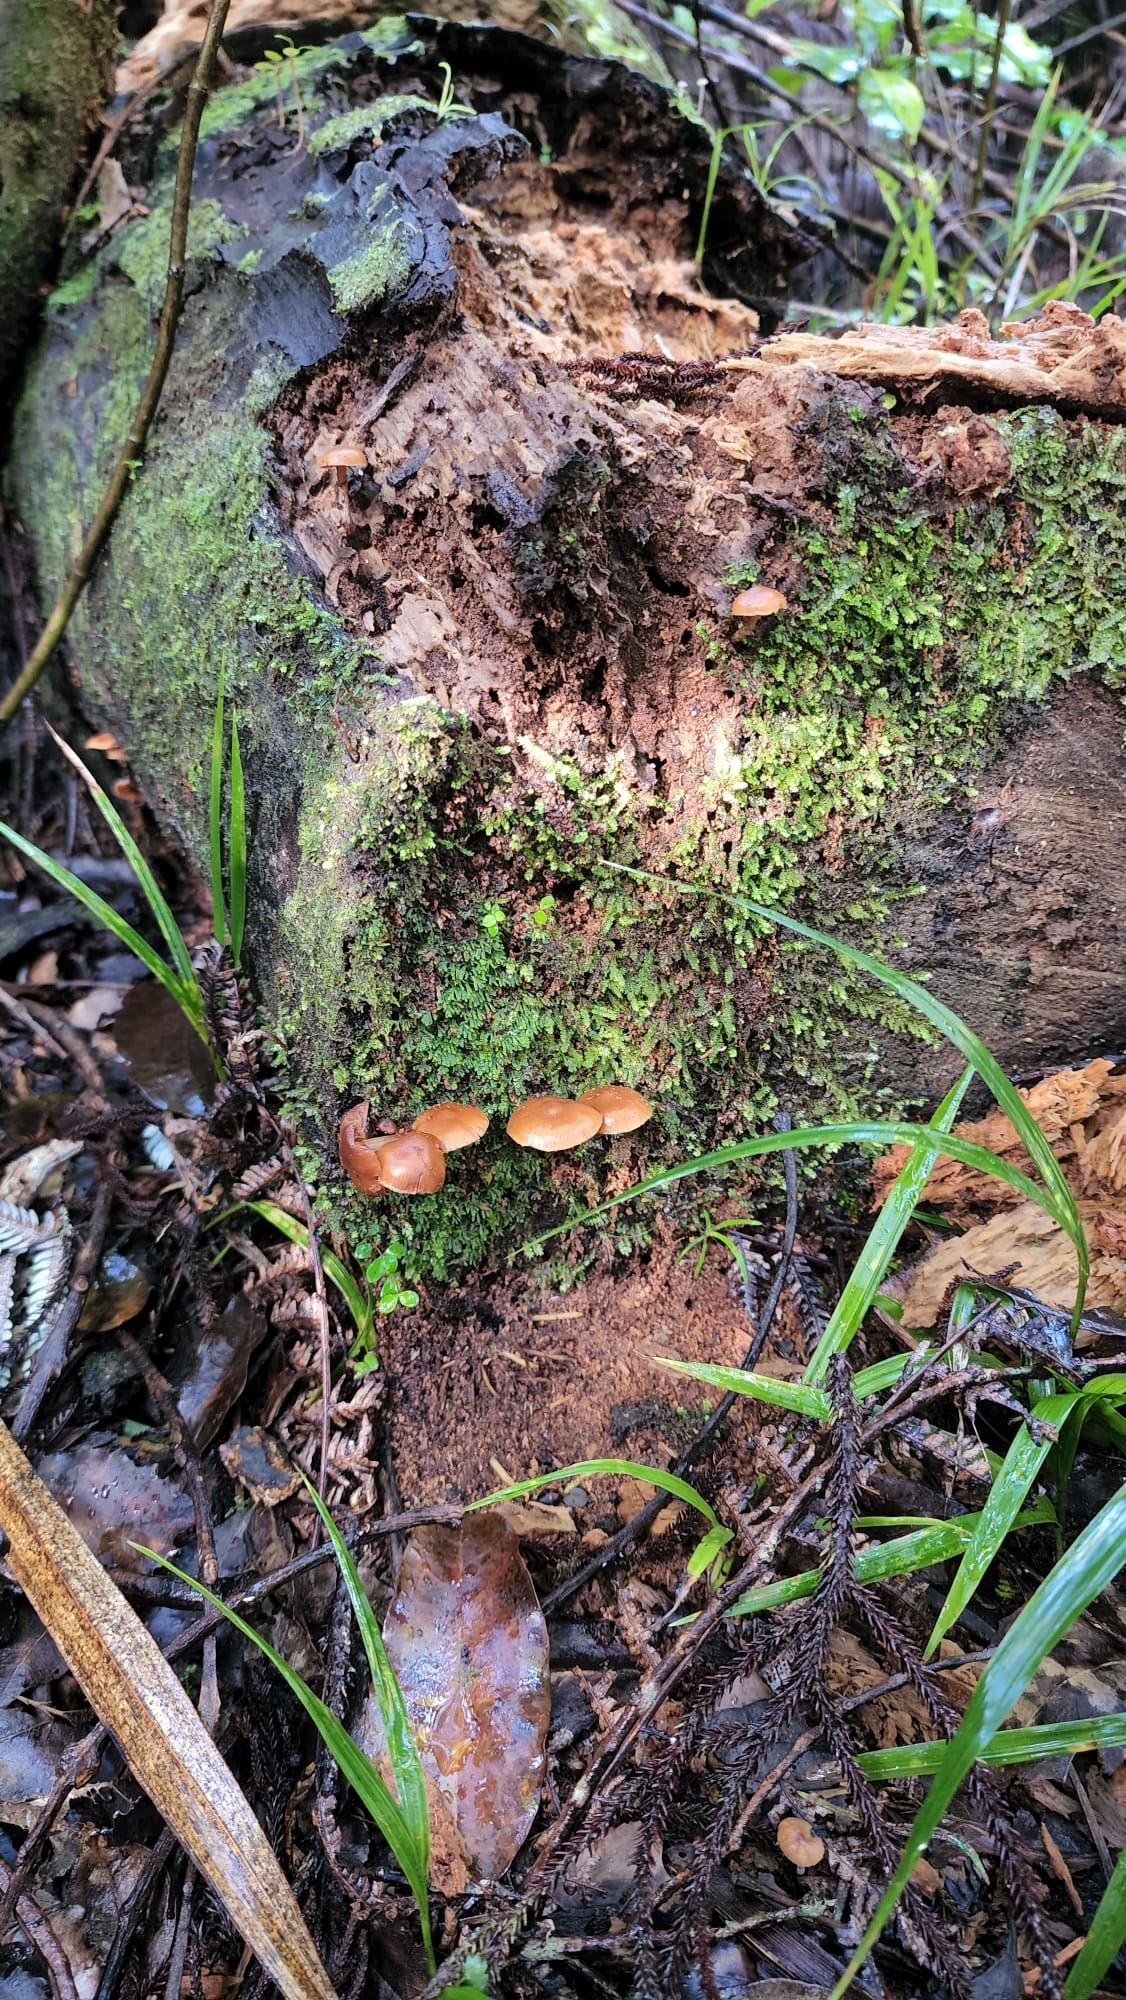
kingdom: Fungi
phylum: Basidiomycota
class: Agaricomycetes
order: Agaricales
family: Hymenogastraceae
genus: Galerina
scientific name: Galerina patagonica
